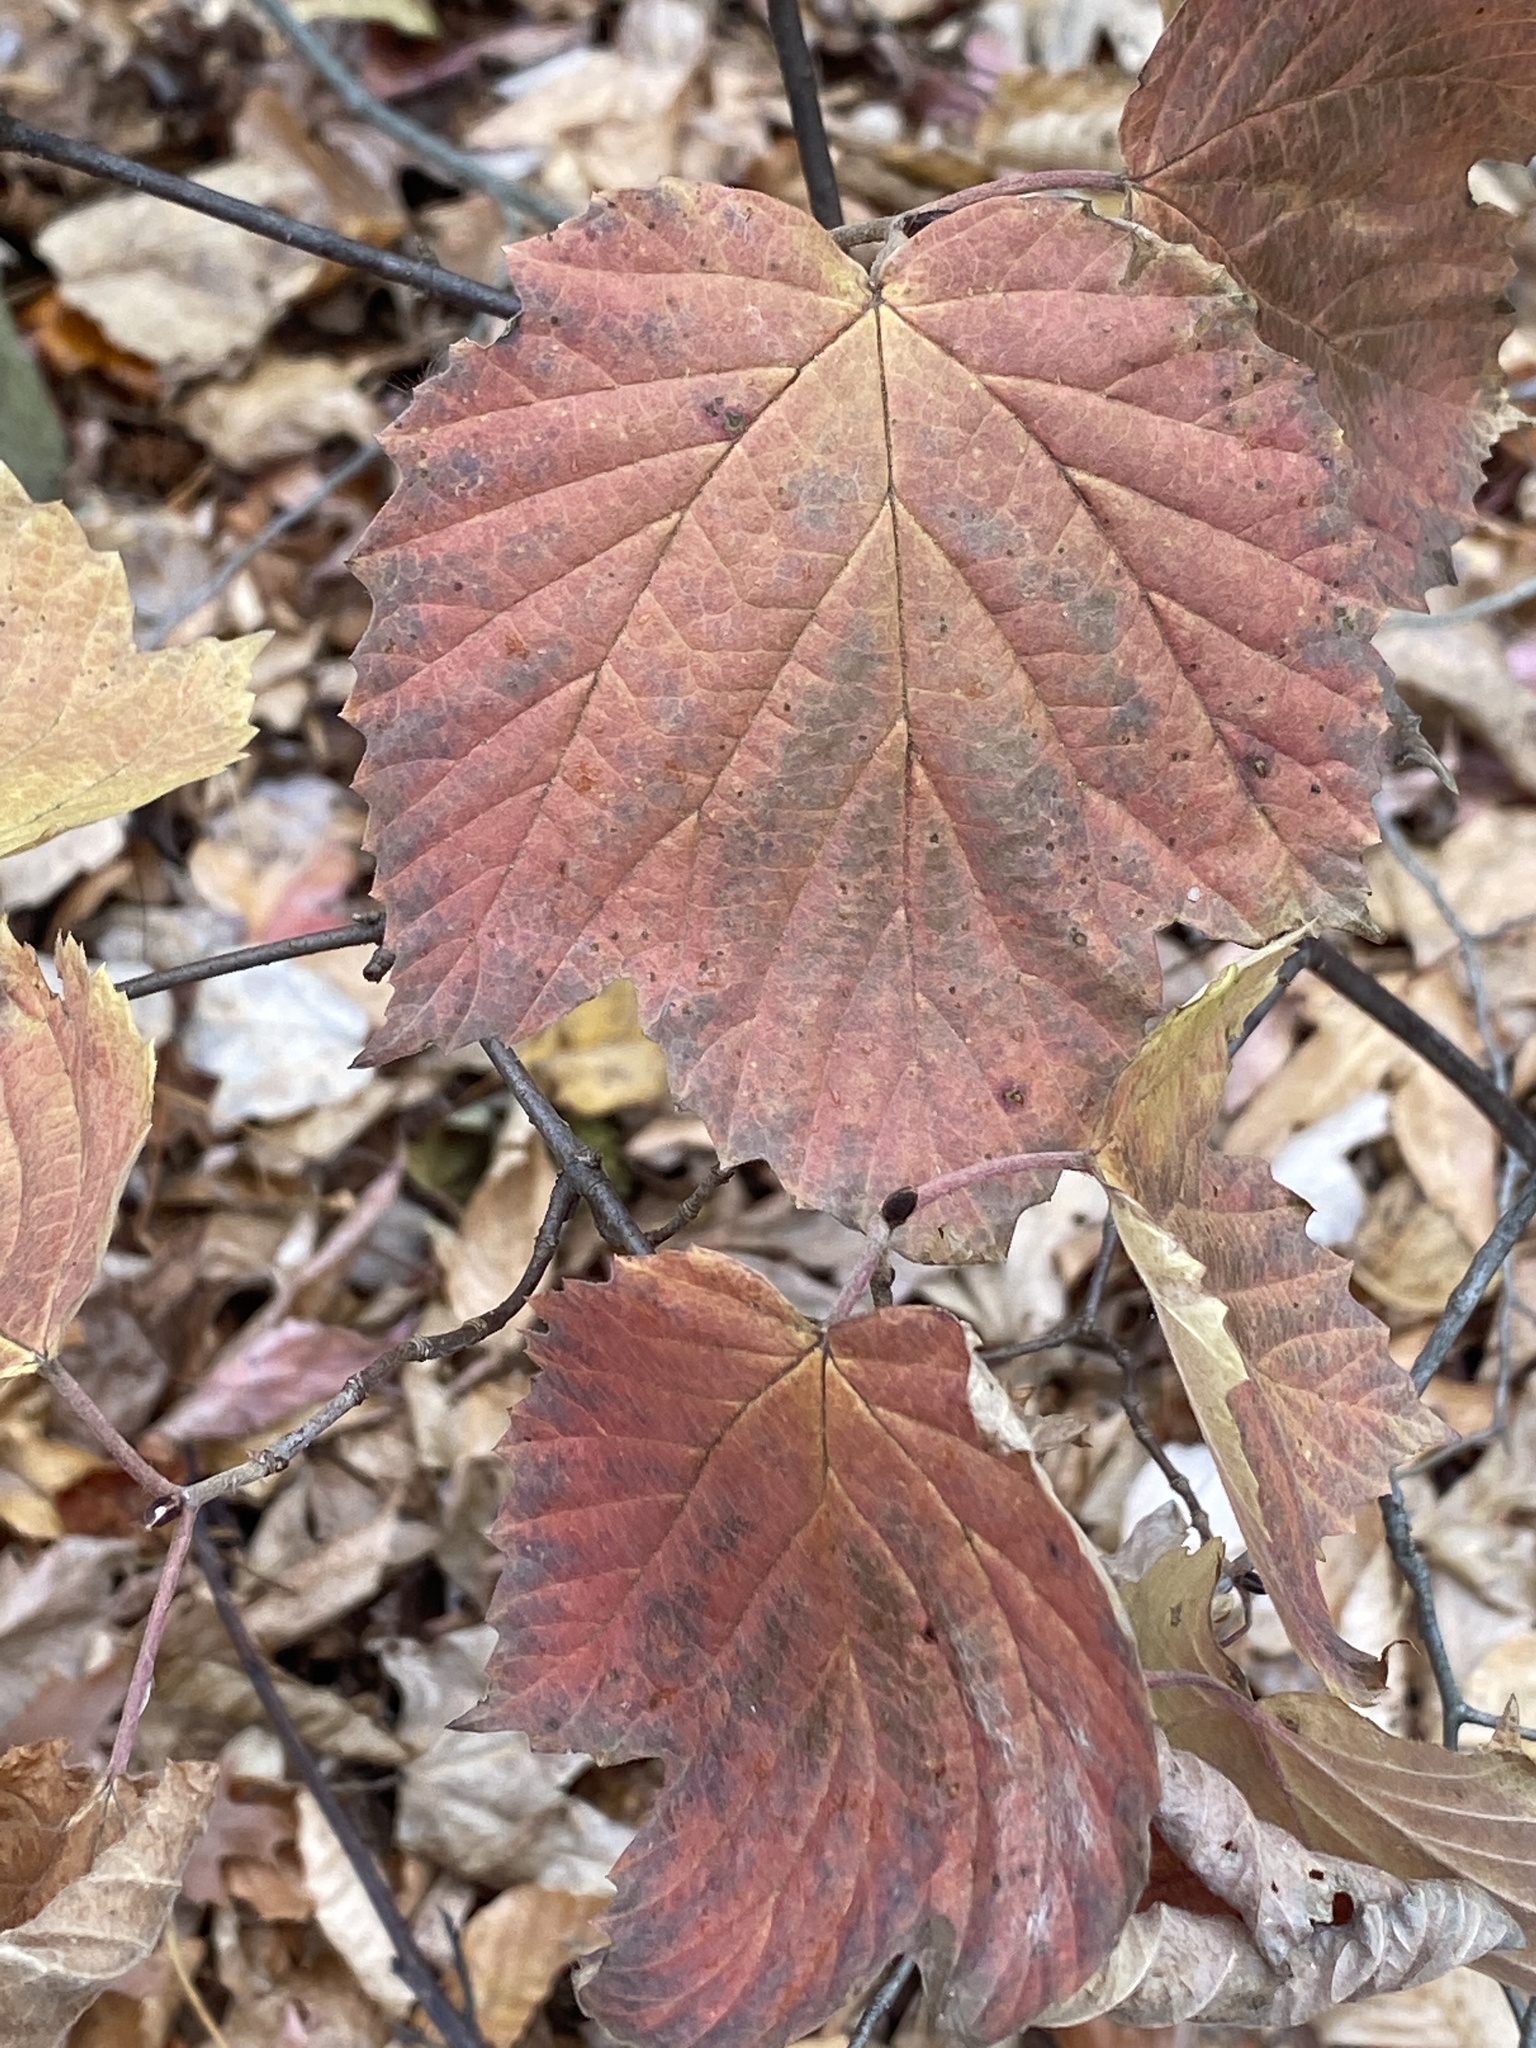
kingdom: Plantae
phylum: Tracheophyta
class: Magnoliopsida
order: Dipsacales
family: Viburnaceae
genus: Viburnum
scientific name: Viburnum acerifolium
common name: Dockmackie
